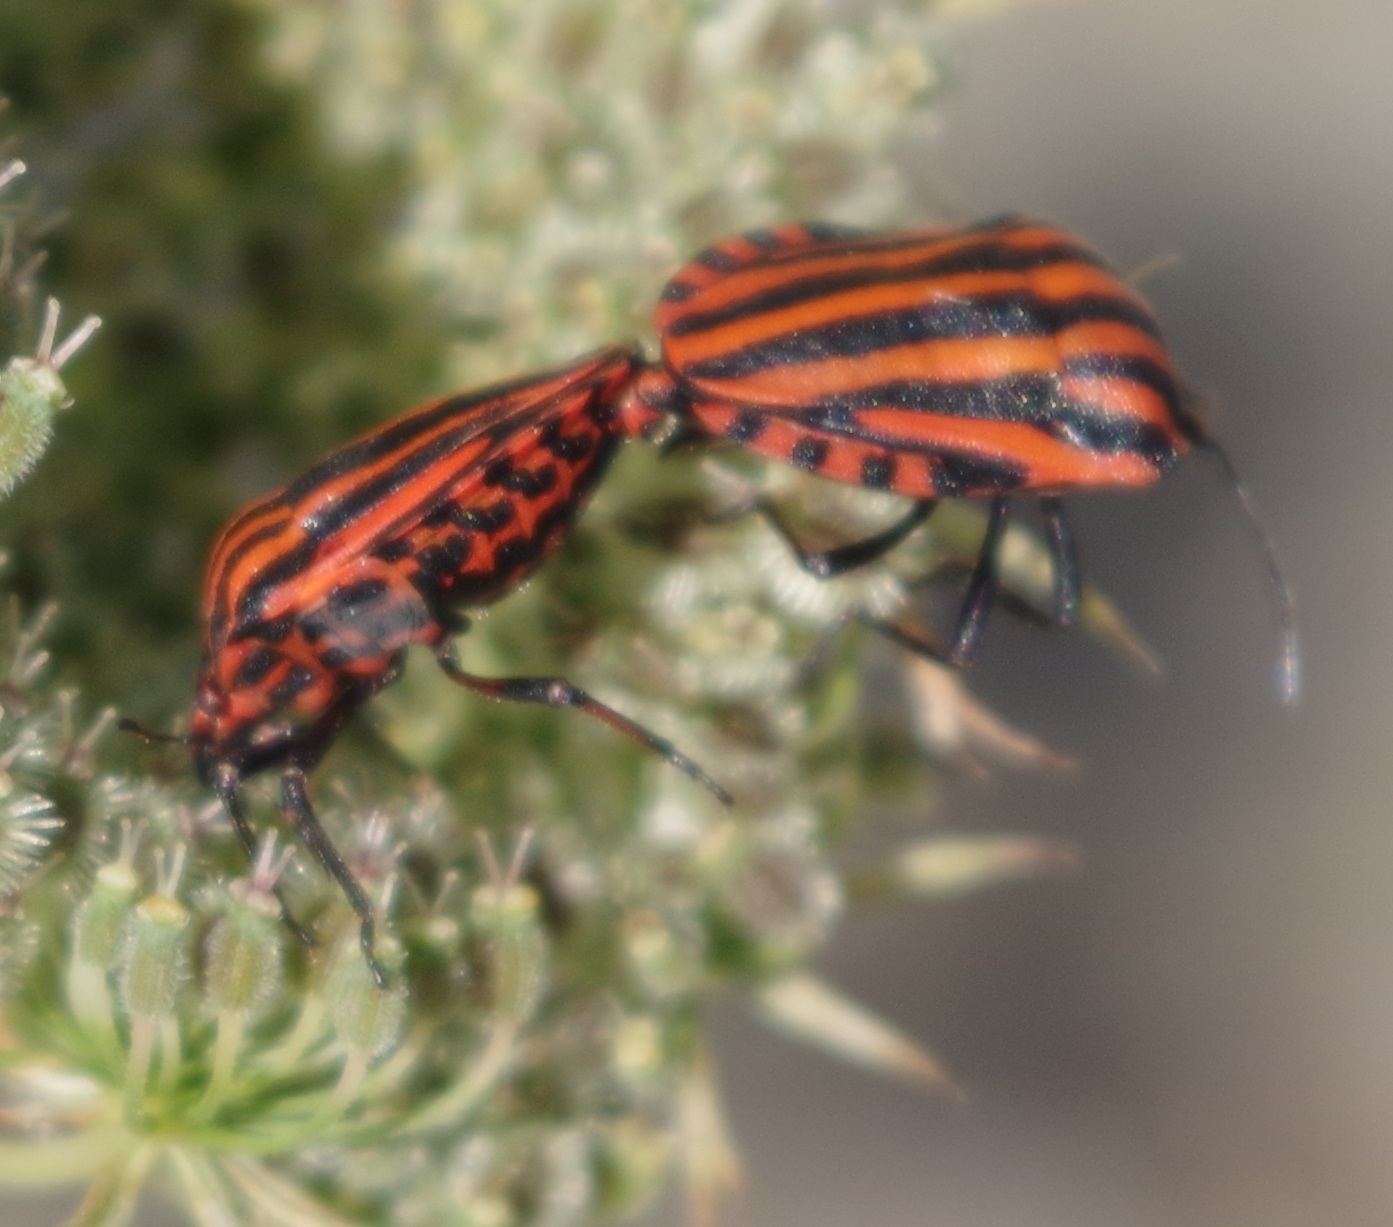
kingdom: Animalia
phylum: Arthropoda
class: Insecta
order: Hemiptera
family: Pentatomidae
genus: Graphosoma
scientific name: Graphosoma italicum
